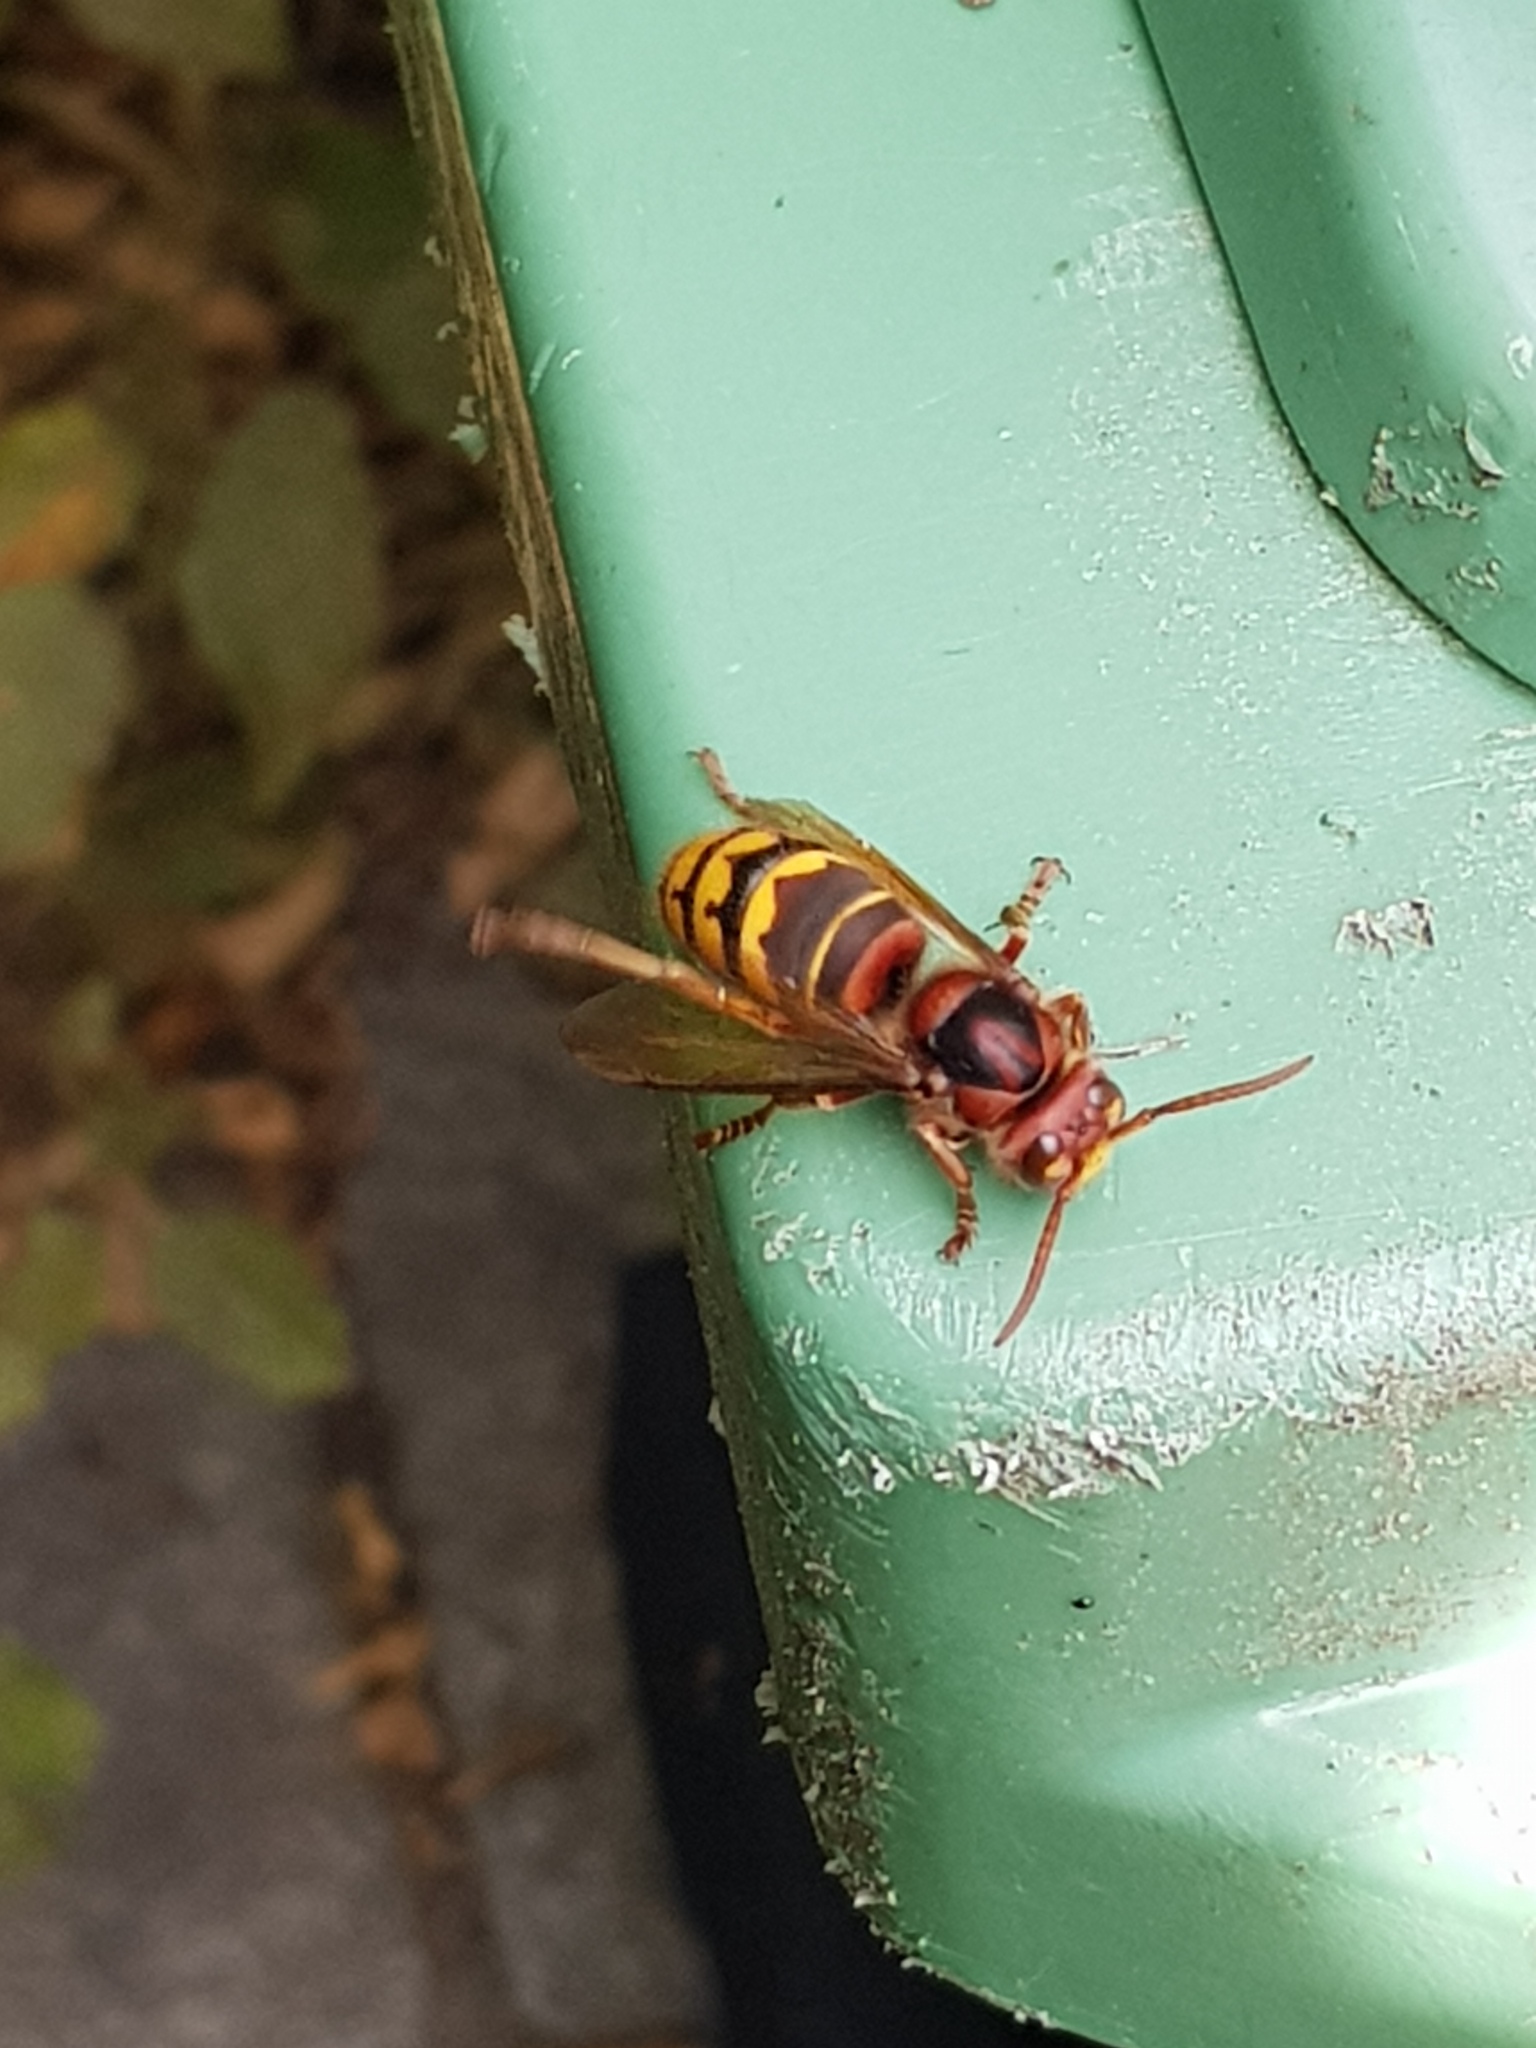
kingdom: Animalia
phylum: Arthropoda
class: Insecta
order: Hymenoptera
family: Vespidae
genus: Vespa
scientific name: Vespa crabro
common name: Hornet
